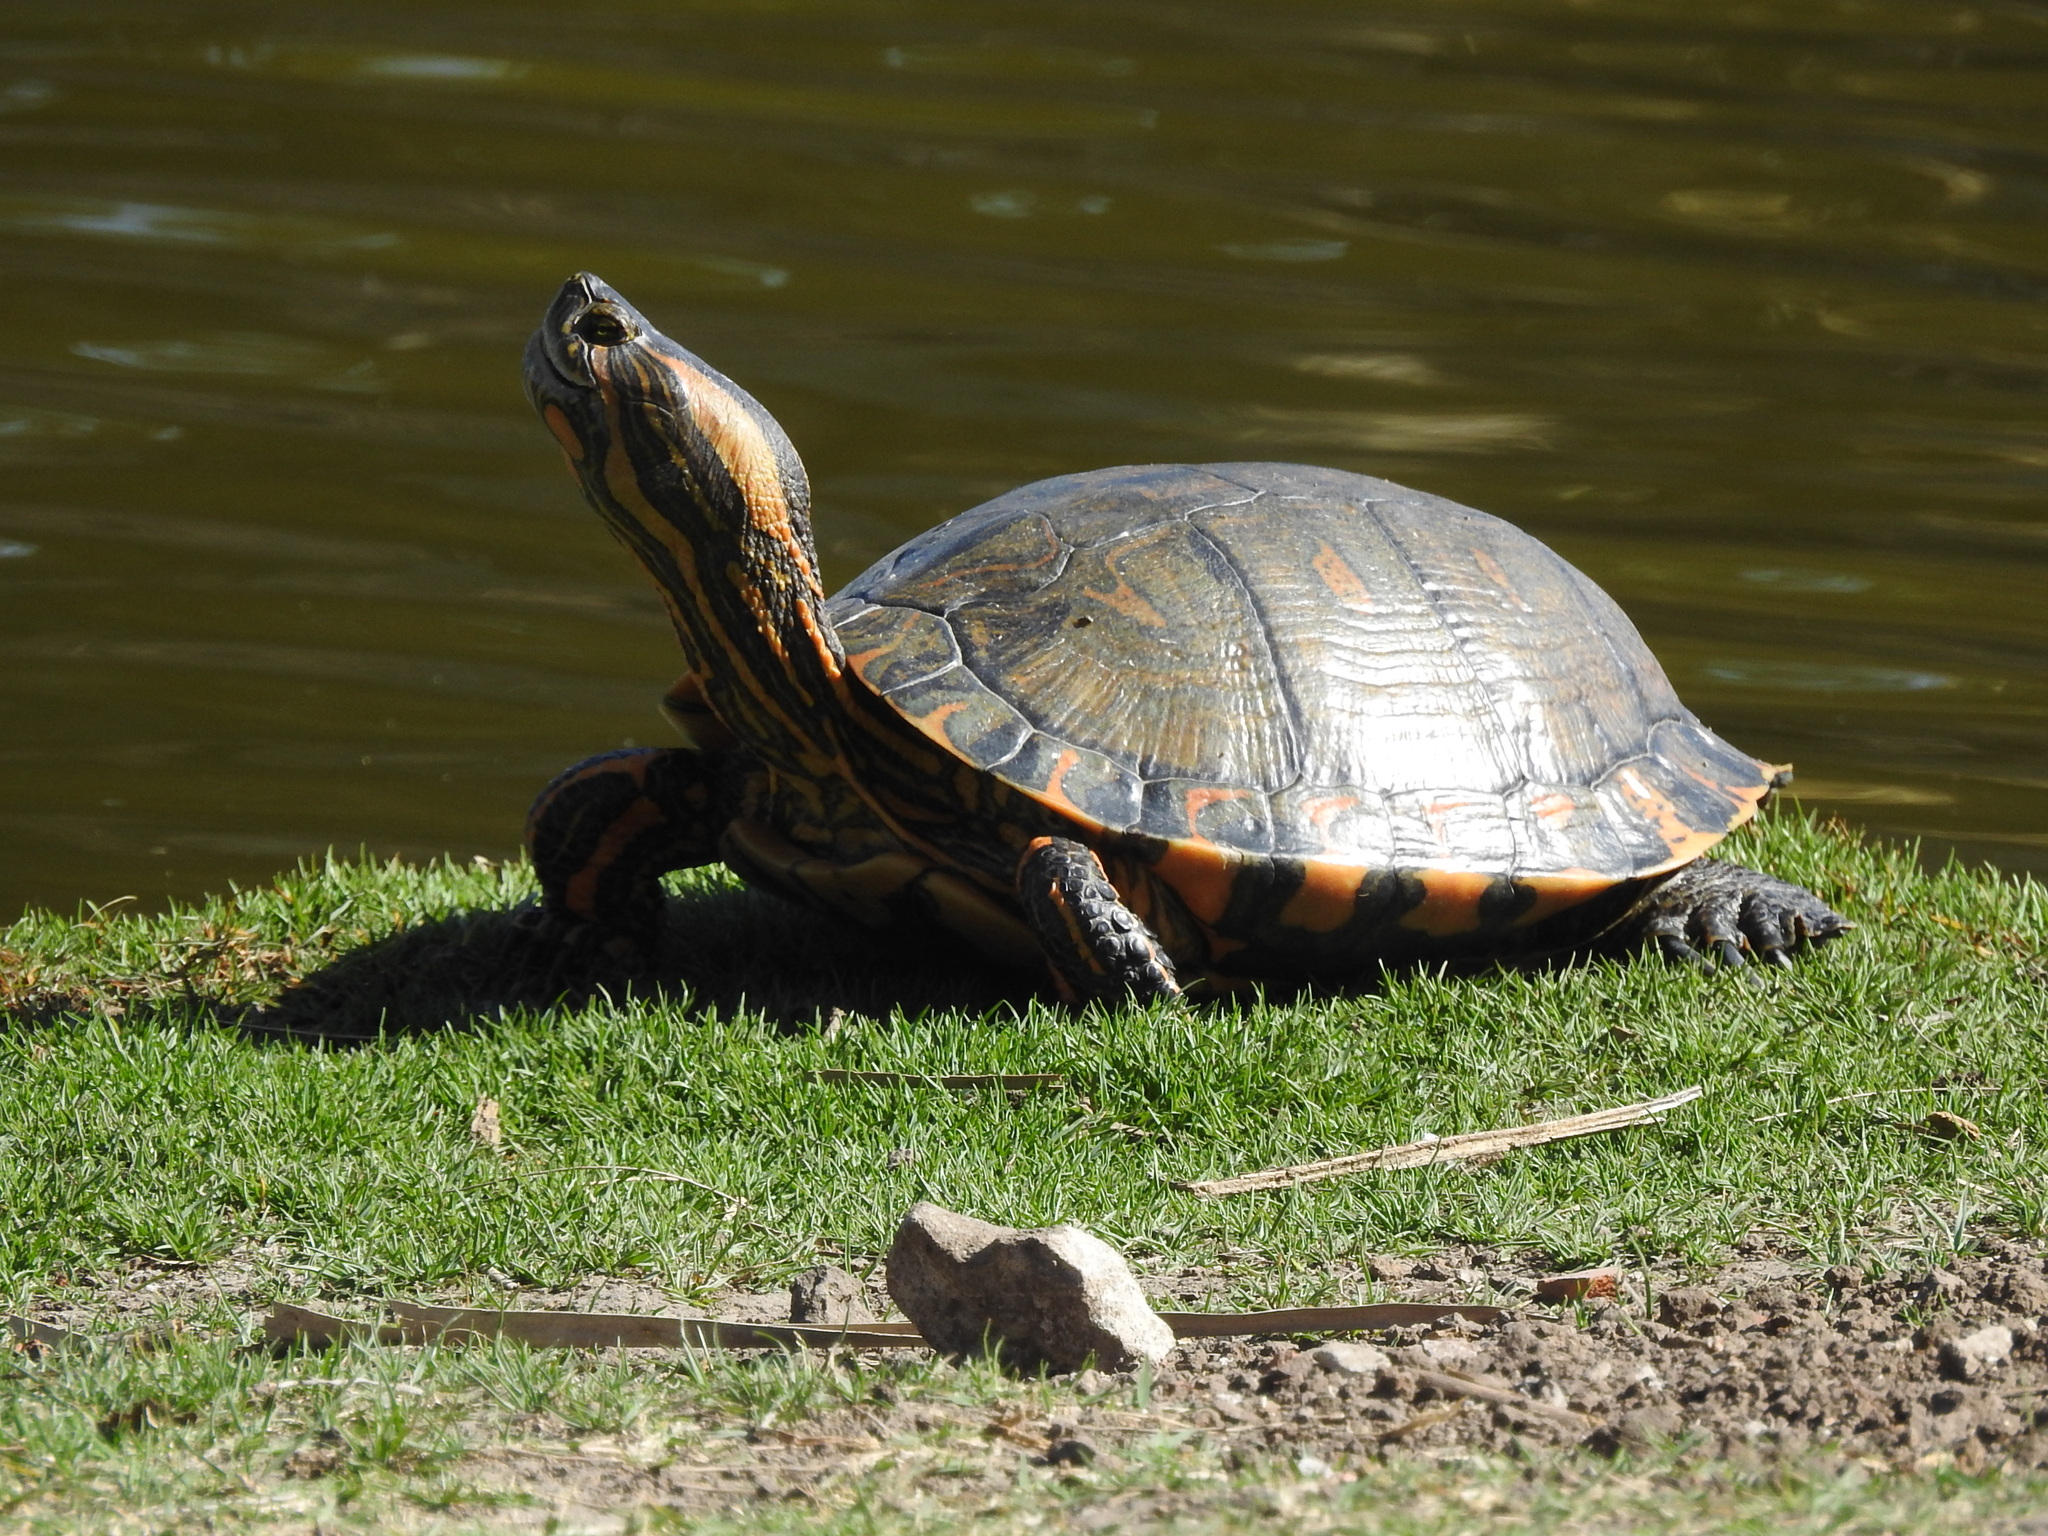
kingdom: Animalia
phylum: Chordata
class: Testudines
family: Emydidae
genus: Trachemys
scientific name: Trachemys dorbigni
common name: Black-bellied slider
